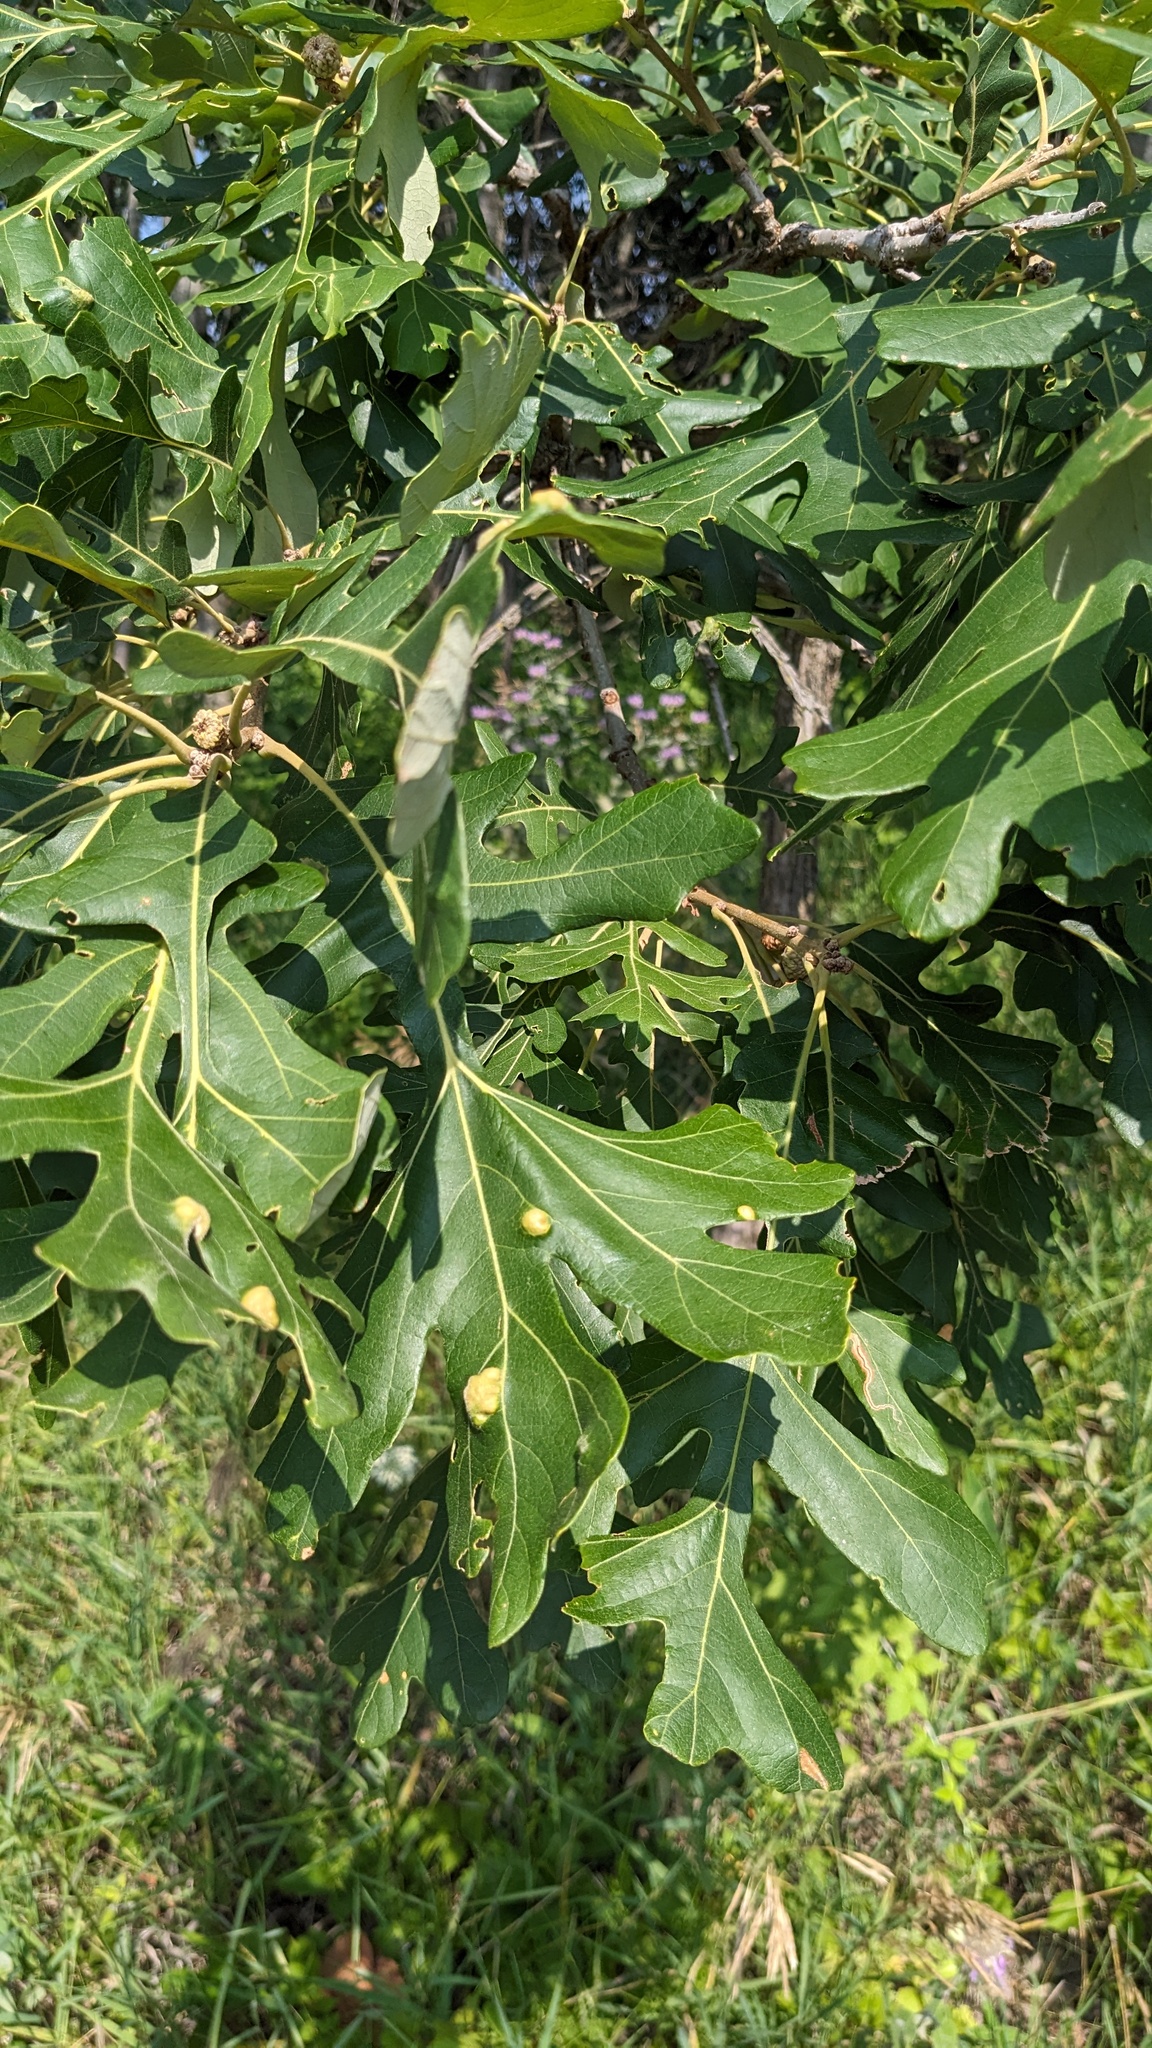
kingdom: Plantae
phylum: Tracheophyta
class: Magnoliopsida
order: Fagales
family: Fagaceae
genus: Quercus
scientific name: Quercus macrocarpa
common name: Bur oak
